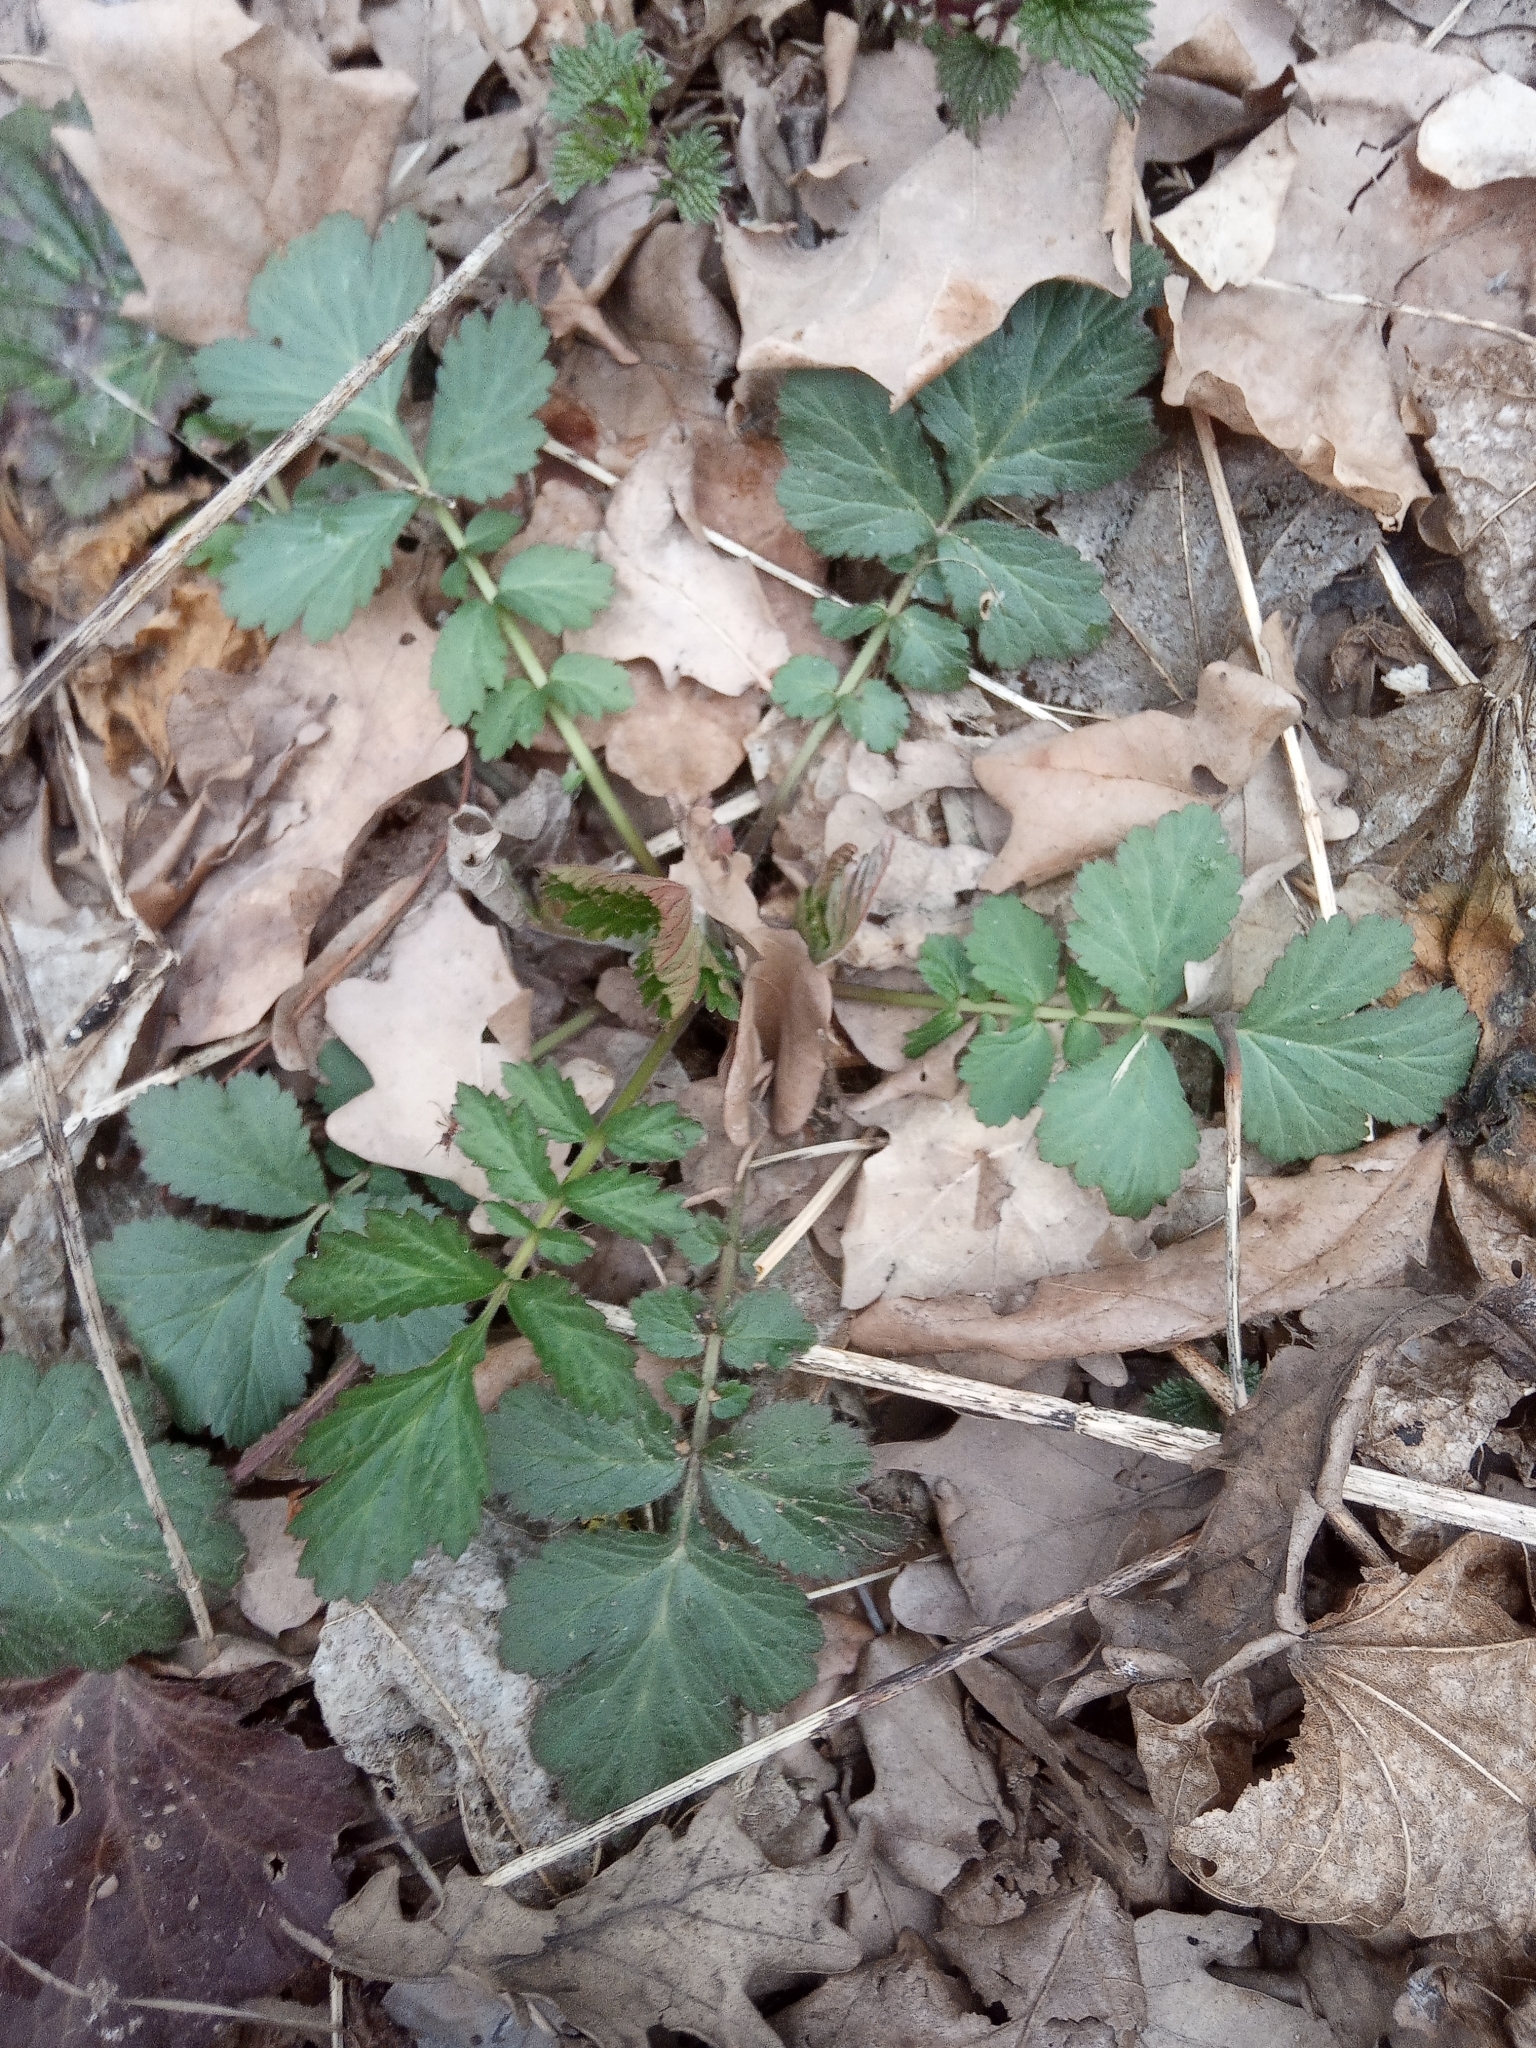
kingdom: Plantae
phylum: Tracheophyta
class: Magnoliopsida
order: Rosales
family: Rosaceae
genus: Geum
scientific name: Geum urbanum
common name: Wood avens
